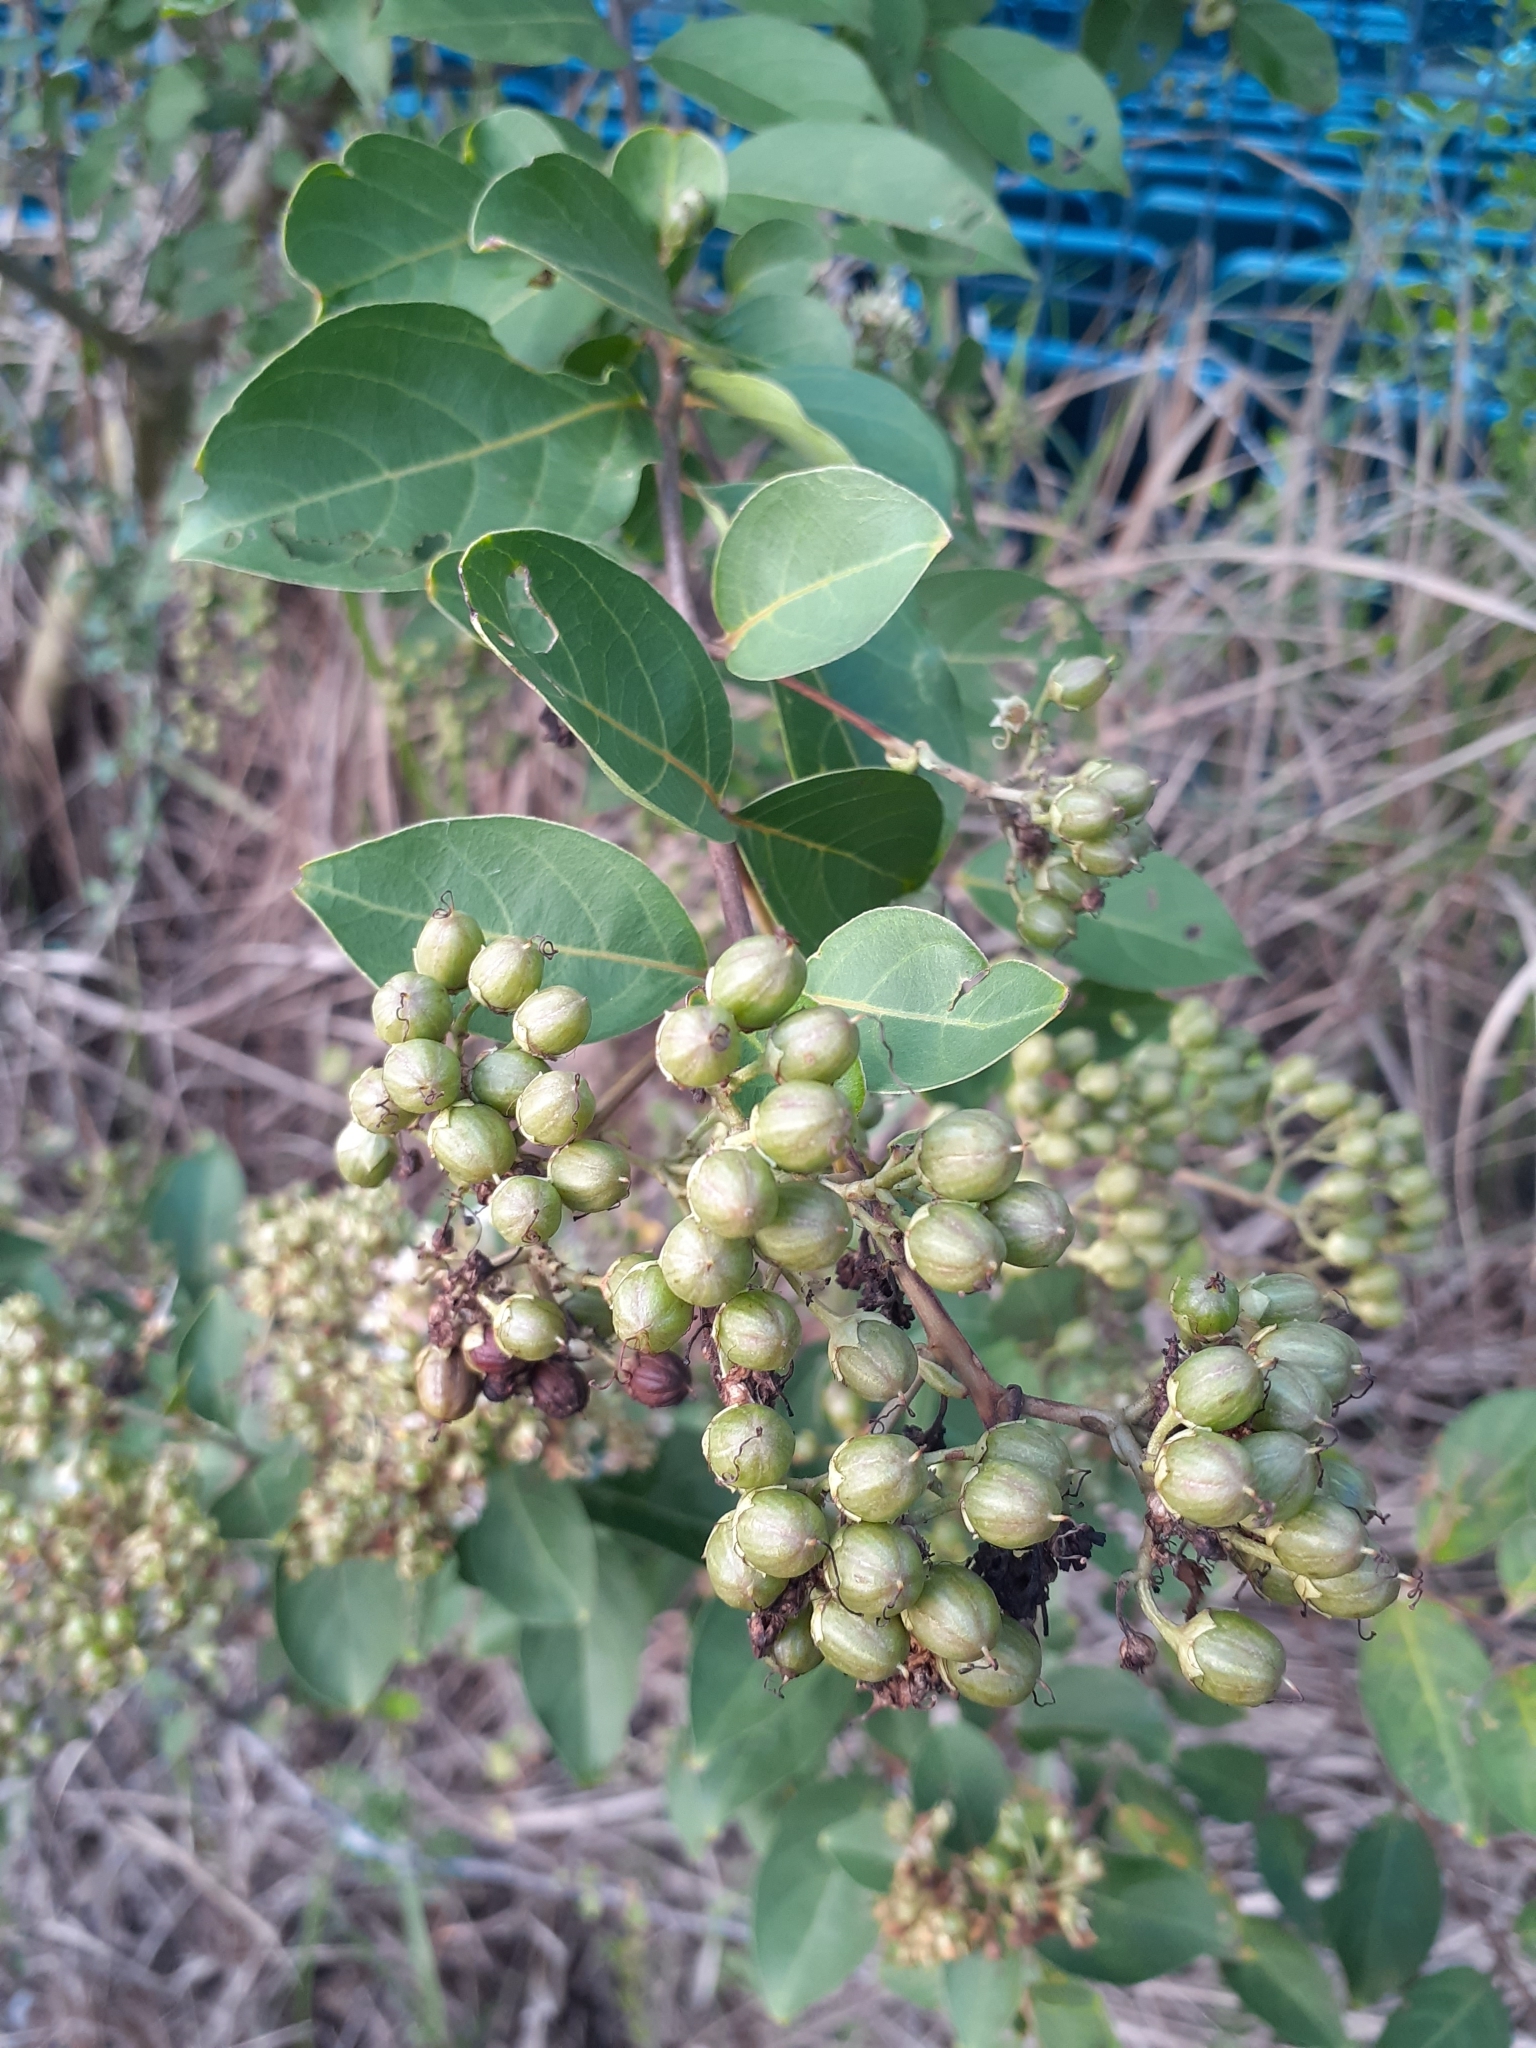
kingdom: Plantae
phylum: Tracheophyta
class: Magnoliopsida
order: Myrtales
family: Lythraceae
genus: Lagerstroemia
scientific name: Lagerstroemia subcostata
